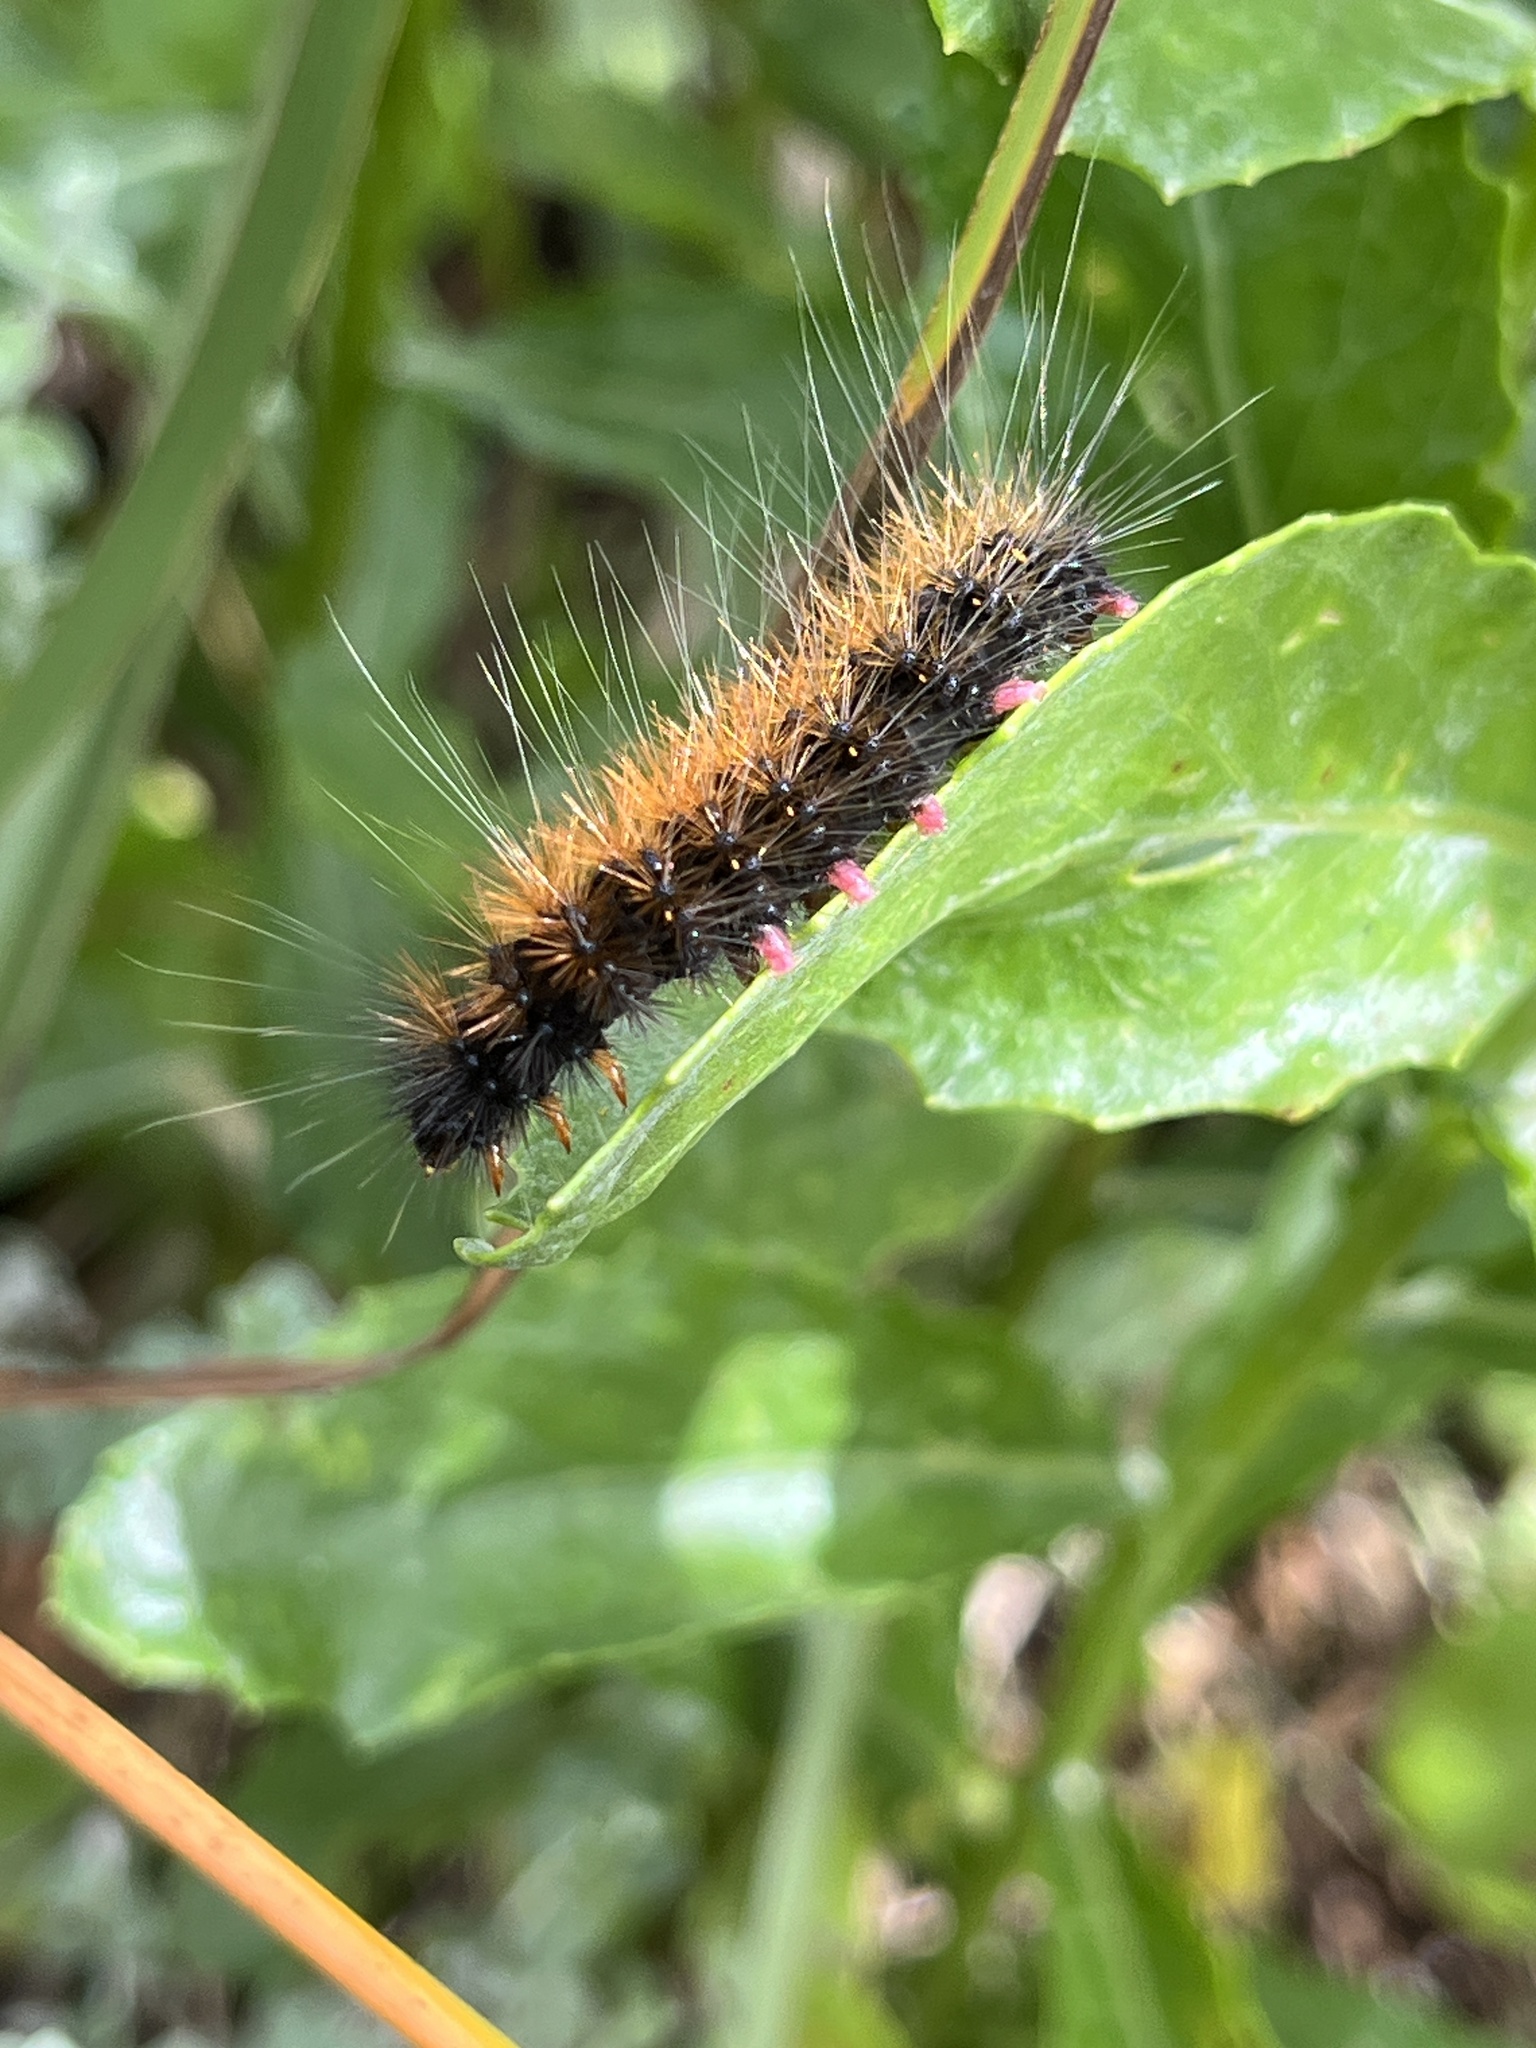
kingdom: Animalia
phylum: Arthropoda
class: Insecta
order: Lepidoptera
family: Erebidae
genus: Rhodogastria
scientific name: Rhodogastria amasis
